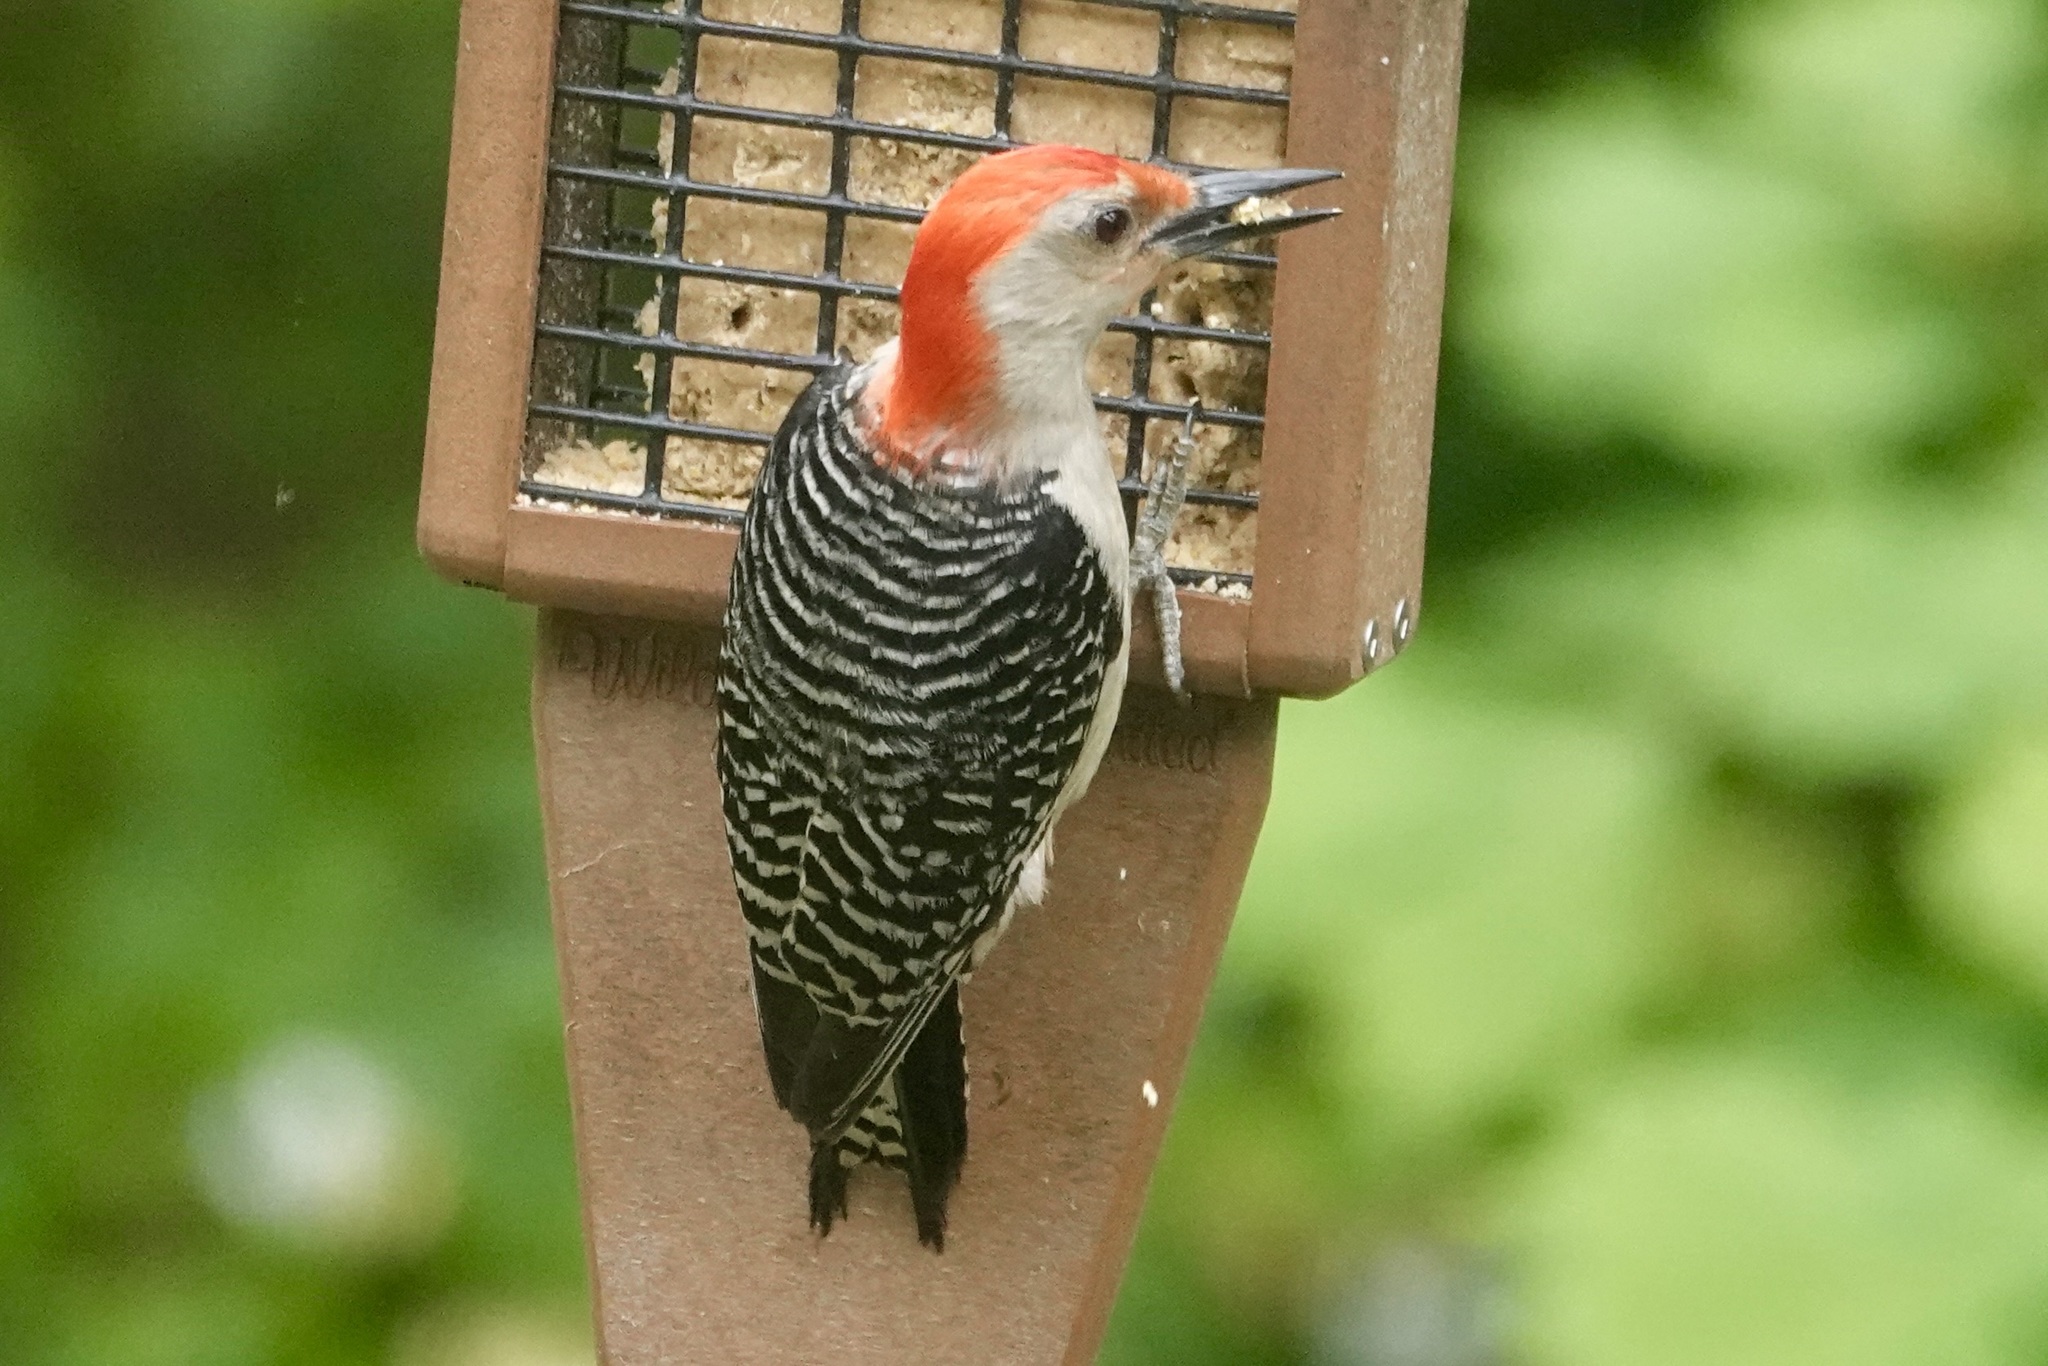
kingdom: Animalia
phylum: Chordata
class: Aves
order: Piciformes
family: Picidae
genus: Melanerpes
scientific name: Melanerpes carolinus
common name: Red-bellied woodpecker
